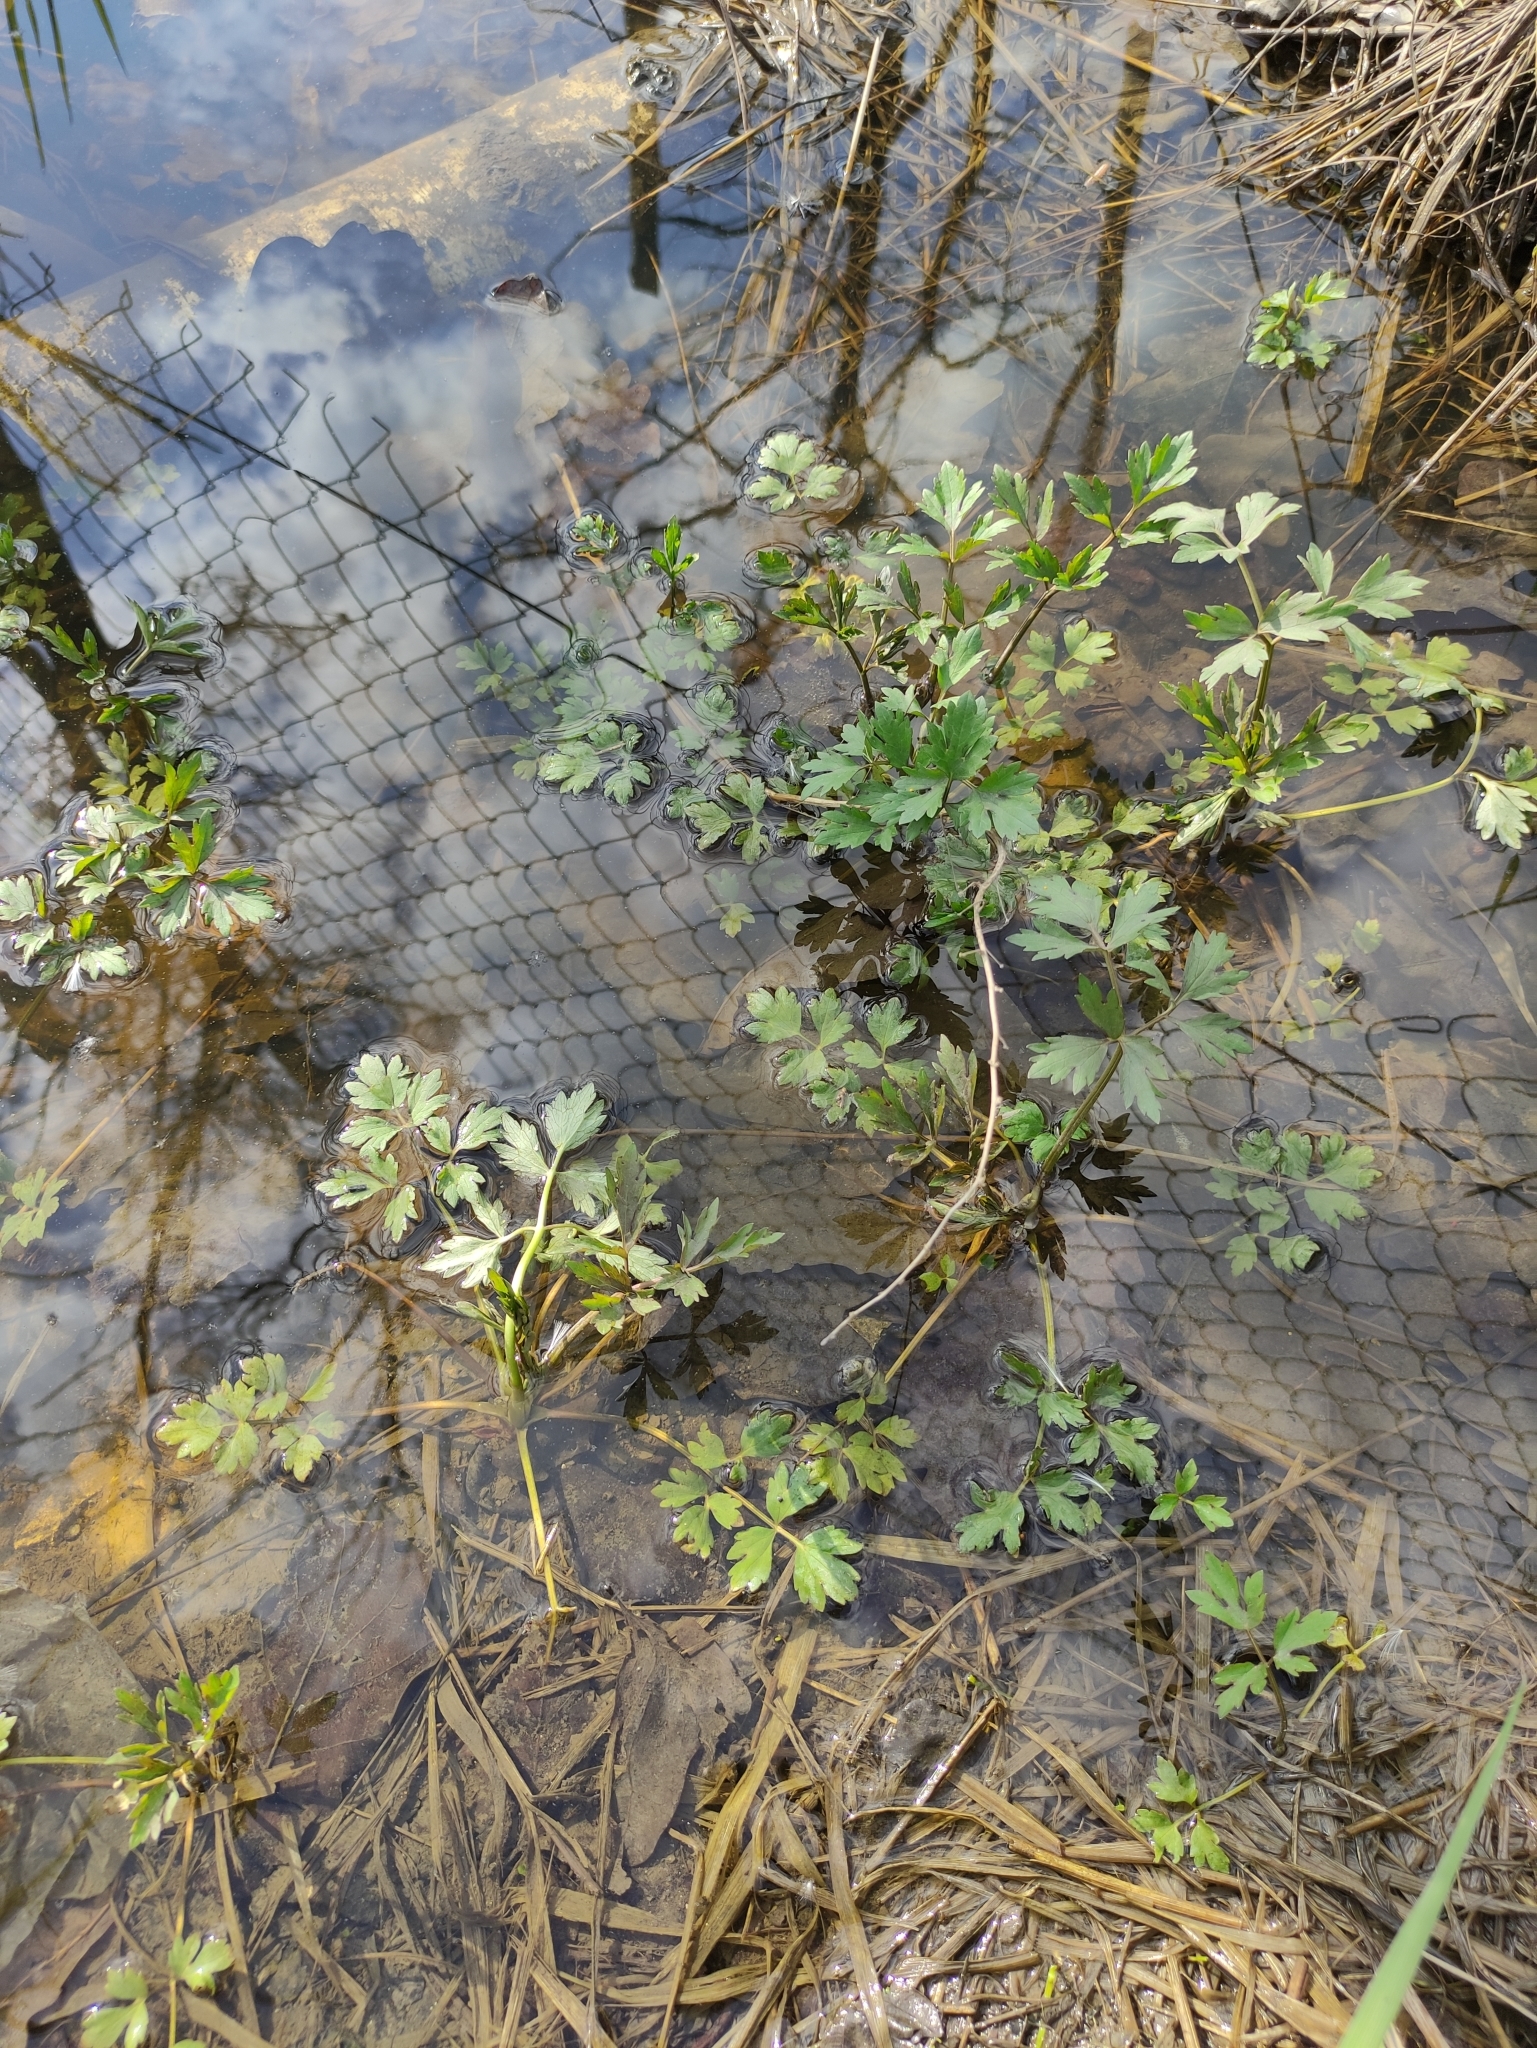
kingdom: Plantae
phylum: Tracheophyta
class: Magnoliopsida
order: Ranunculales
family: Ranunculaceae
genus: Ranunculus
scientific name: Ranunculus repens
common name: Creeping buttercup
